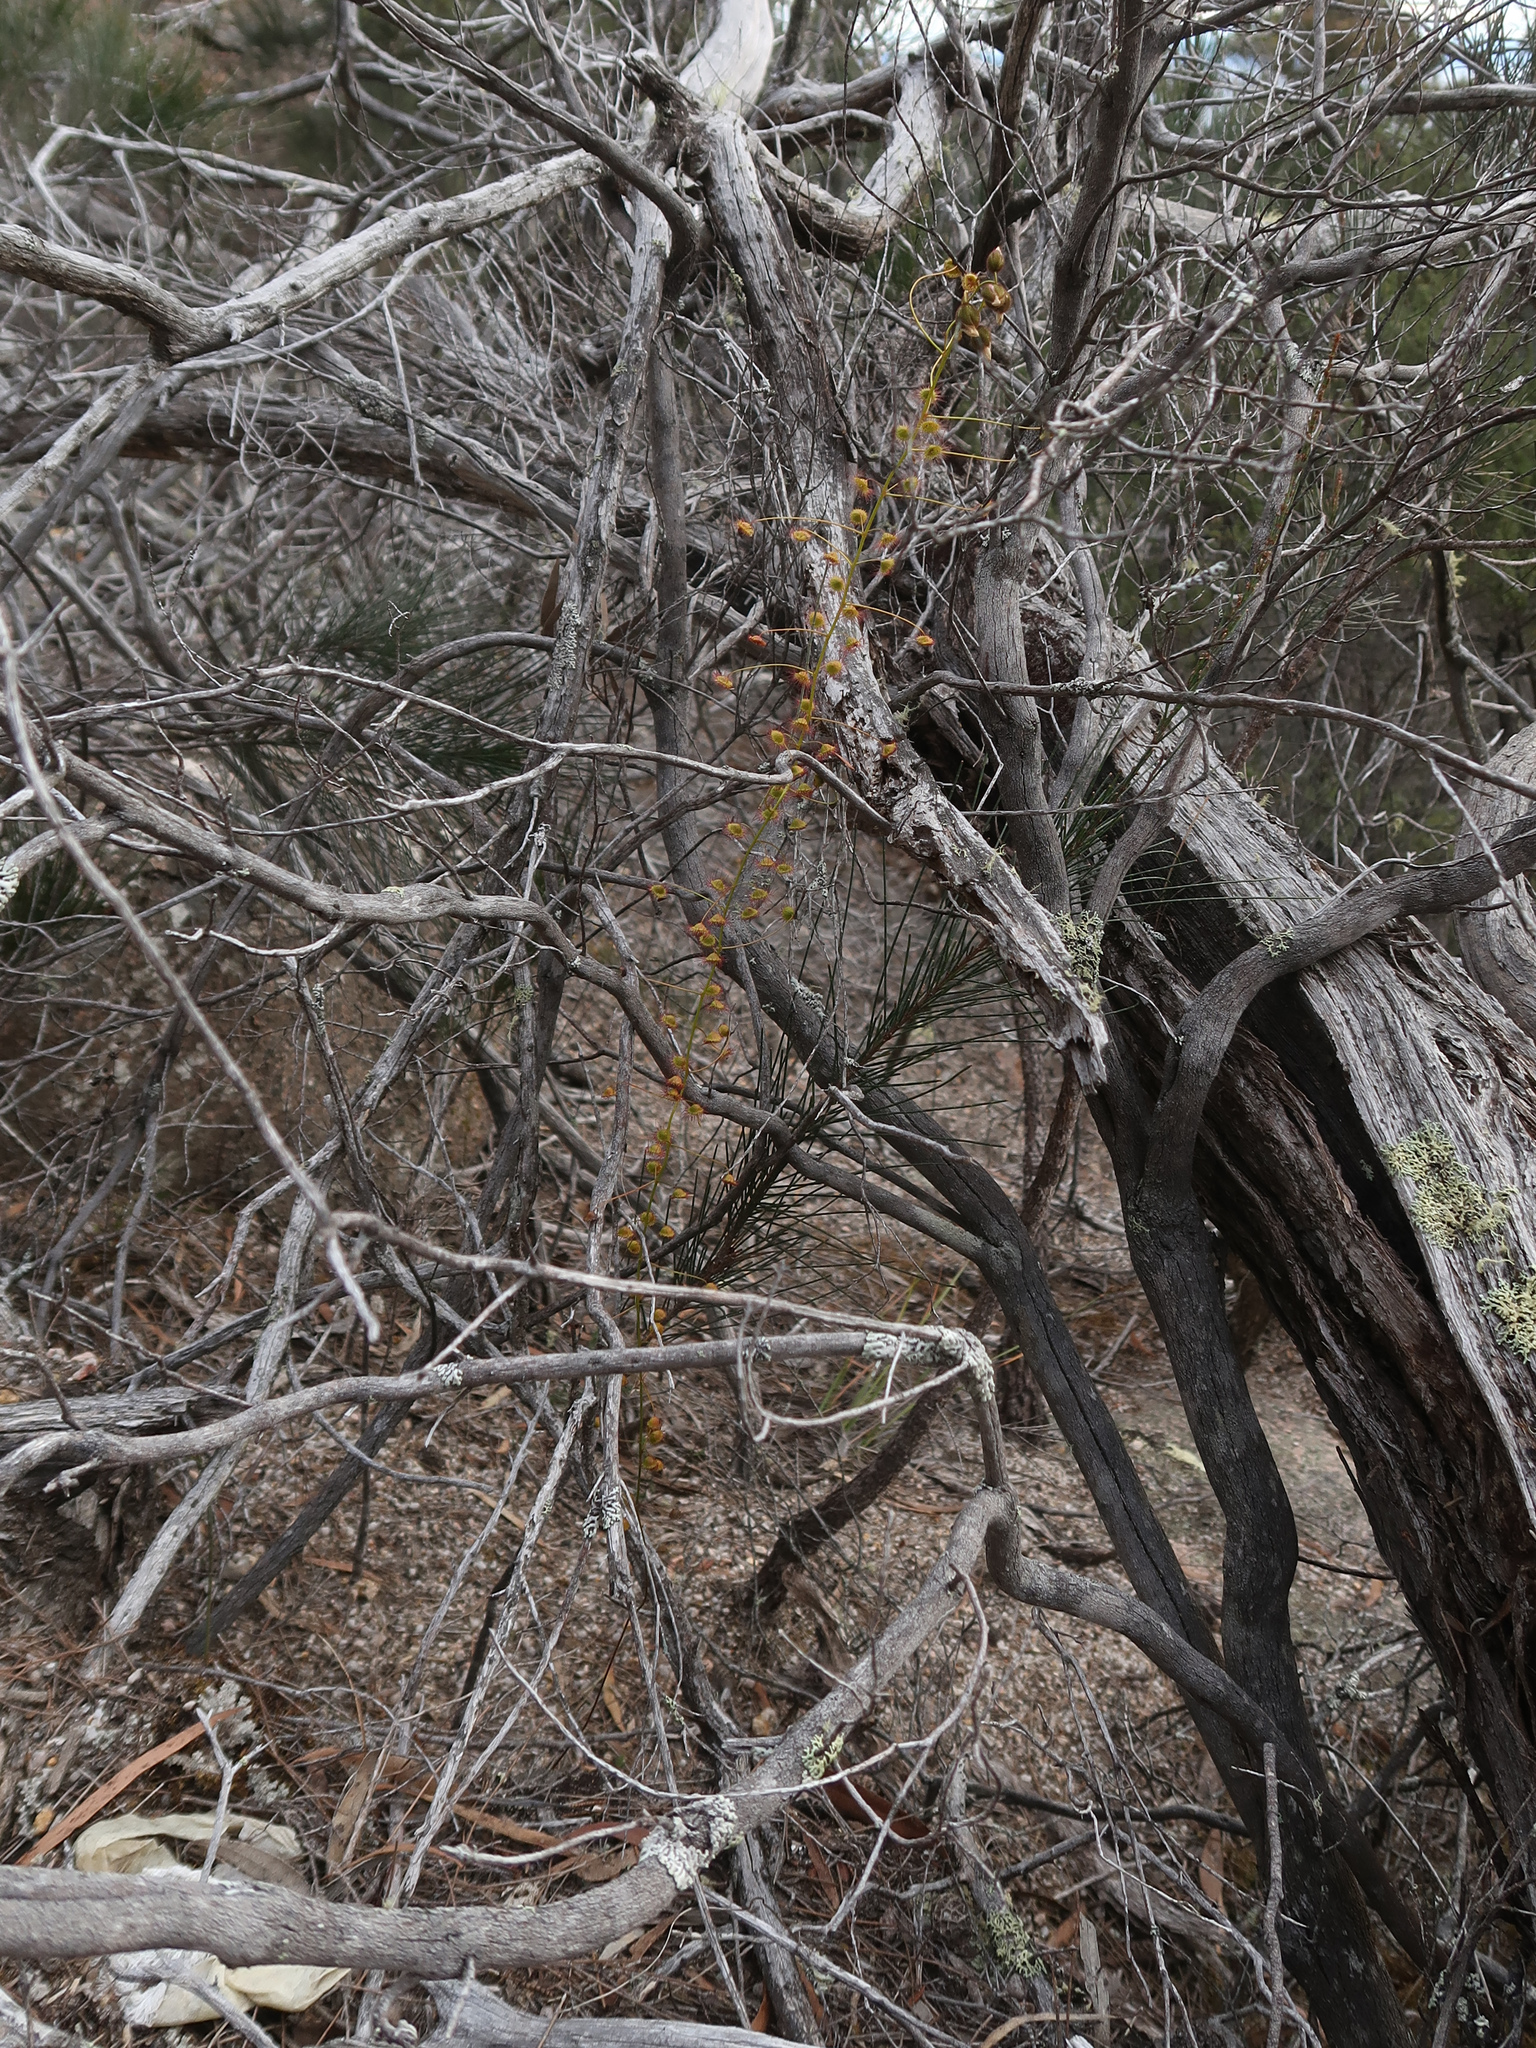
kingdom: Plantae
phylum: Tracheophyta
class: Magnoliopsida
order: Caryophyllales
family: Droseraceae
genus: Drosera
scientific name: Drosera planchonii
